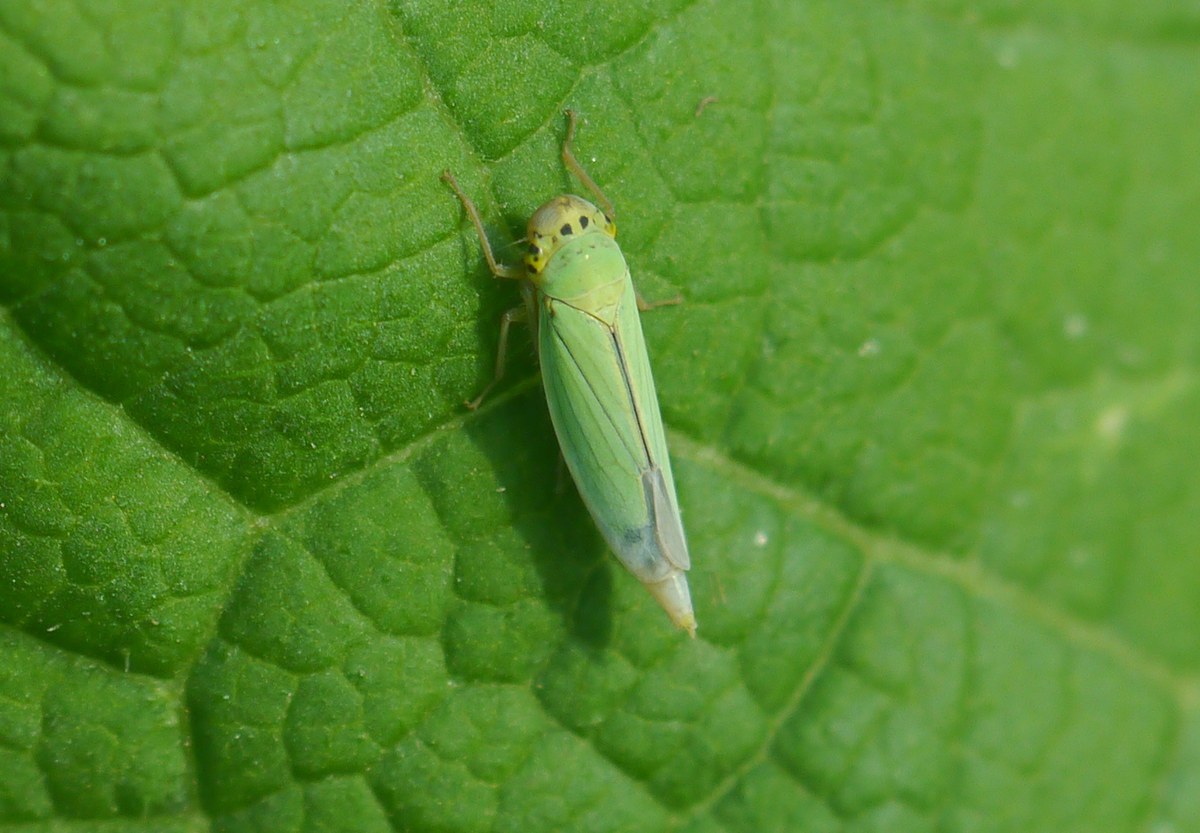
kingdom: Animalia
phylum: Arthropoda
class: Insecta
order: Hemiptera
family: Cicadellidae
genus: Cicadella
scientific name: Cicadella viridis
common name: Leafhopper
